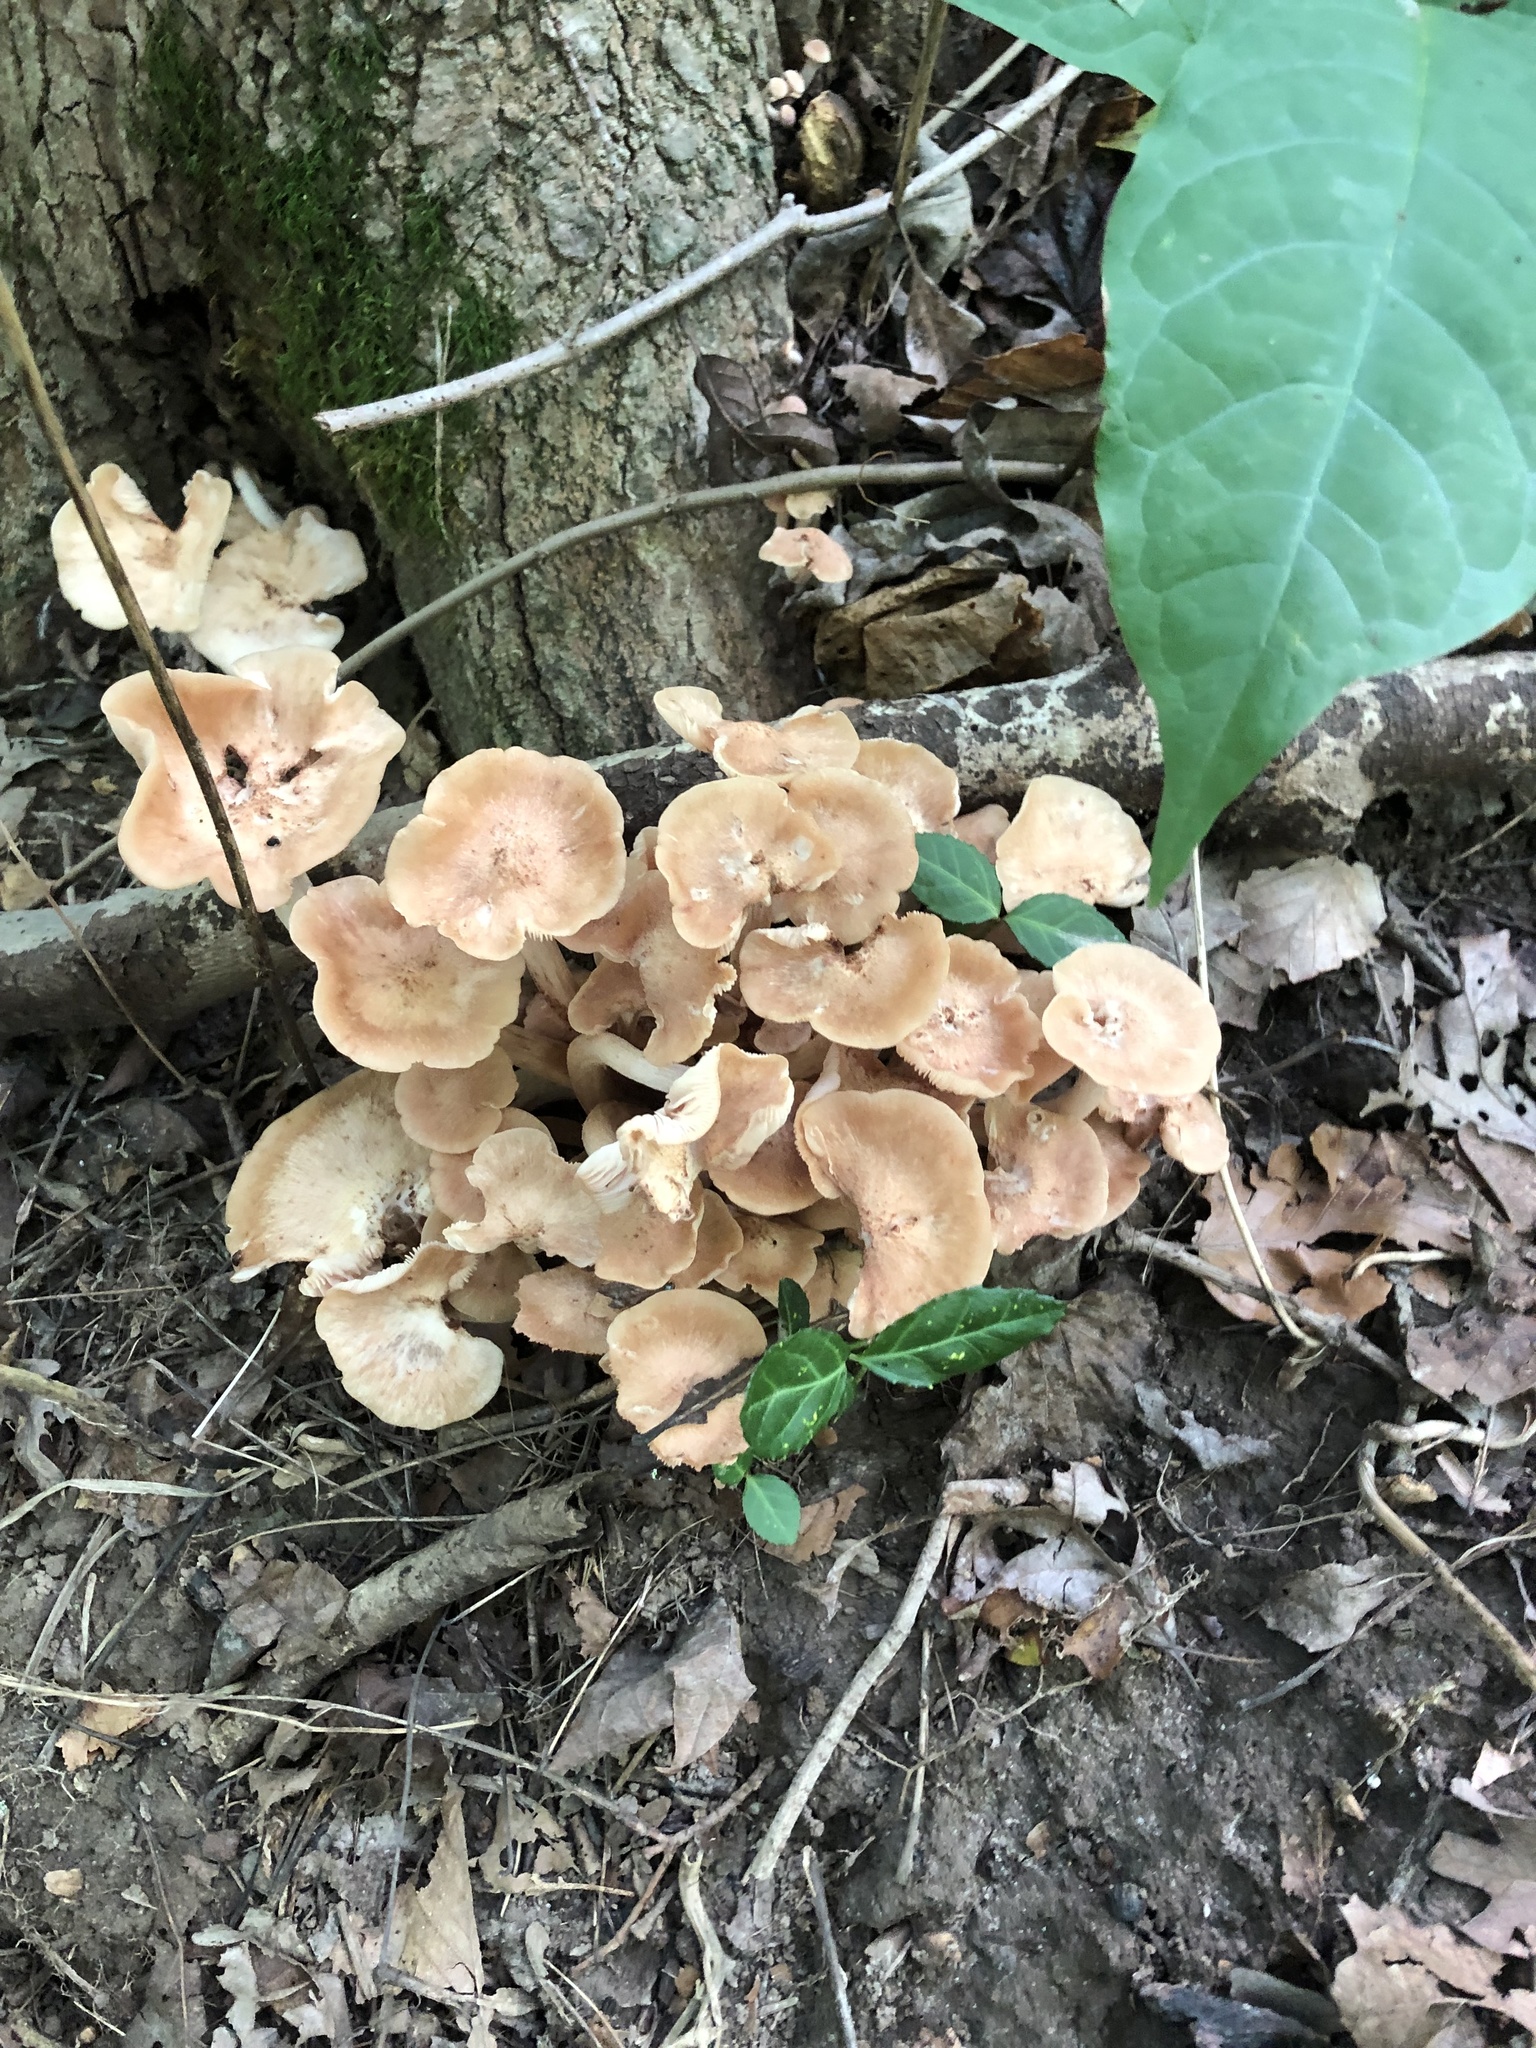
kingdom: Fungi
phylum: Basidiomycota
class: Agaricomycetes
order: Agaricales
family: Physalacriaceae
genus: Desarmillaria
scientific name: Desarmillaria caespitosa
